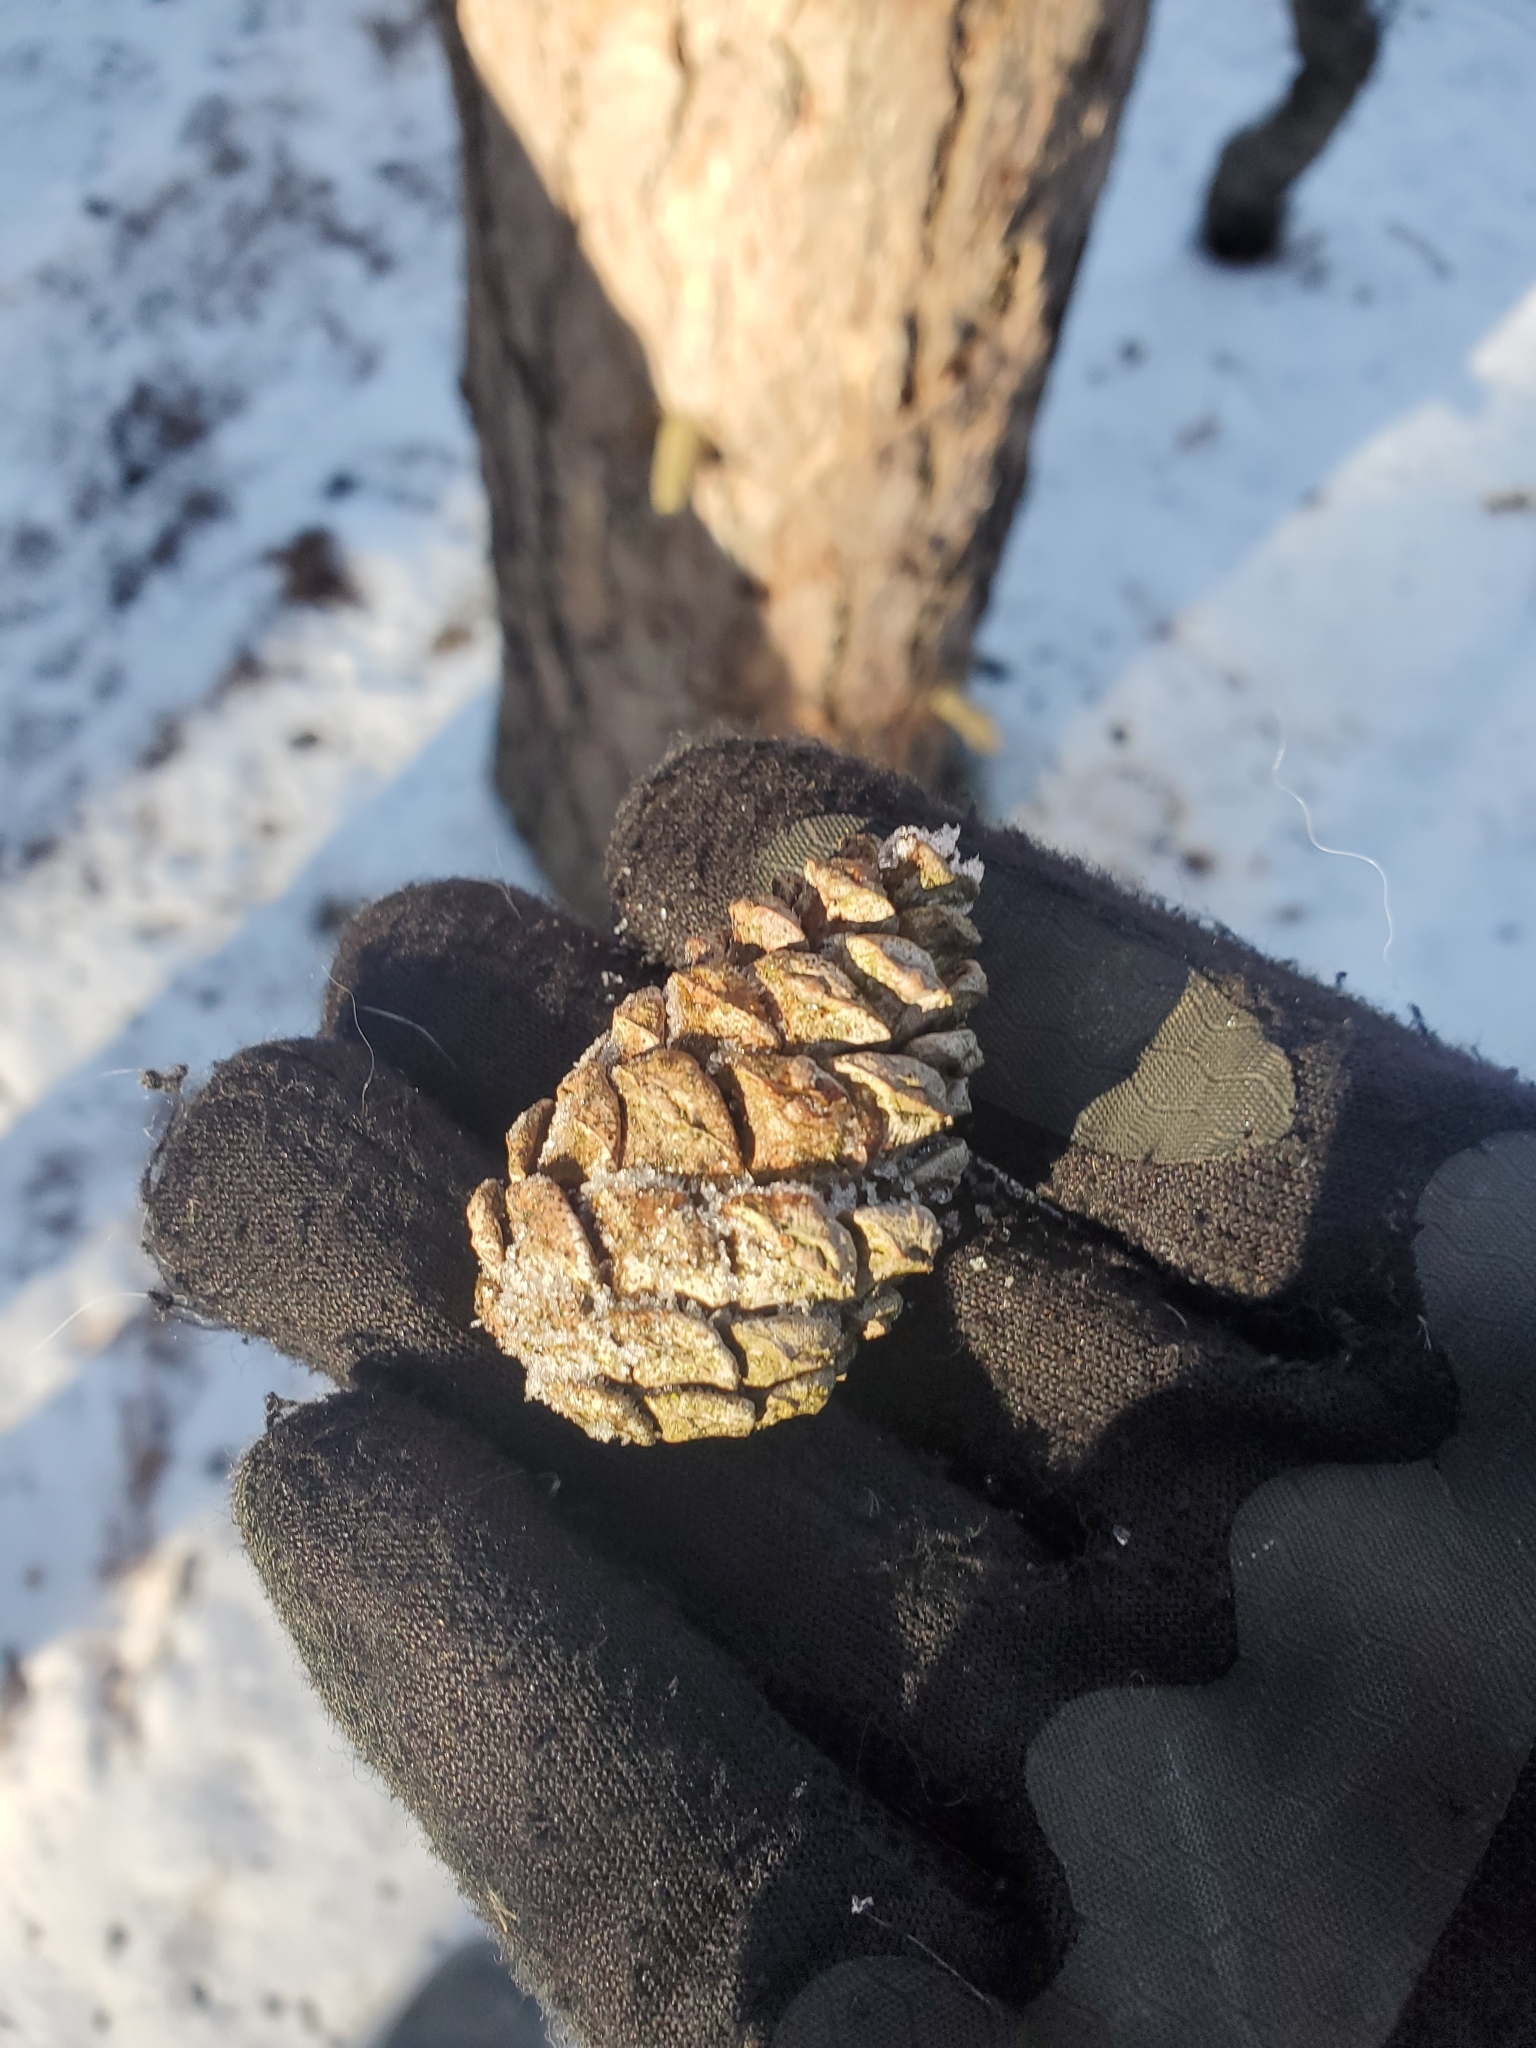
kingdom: Plantae
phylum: Tracheophyta
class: Pinopsida
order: Pinales
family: Pinaceae
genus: Pinus
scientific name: Pinus resinosa
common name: Norway pine
